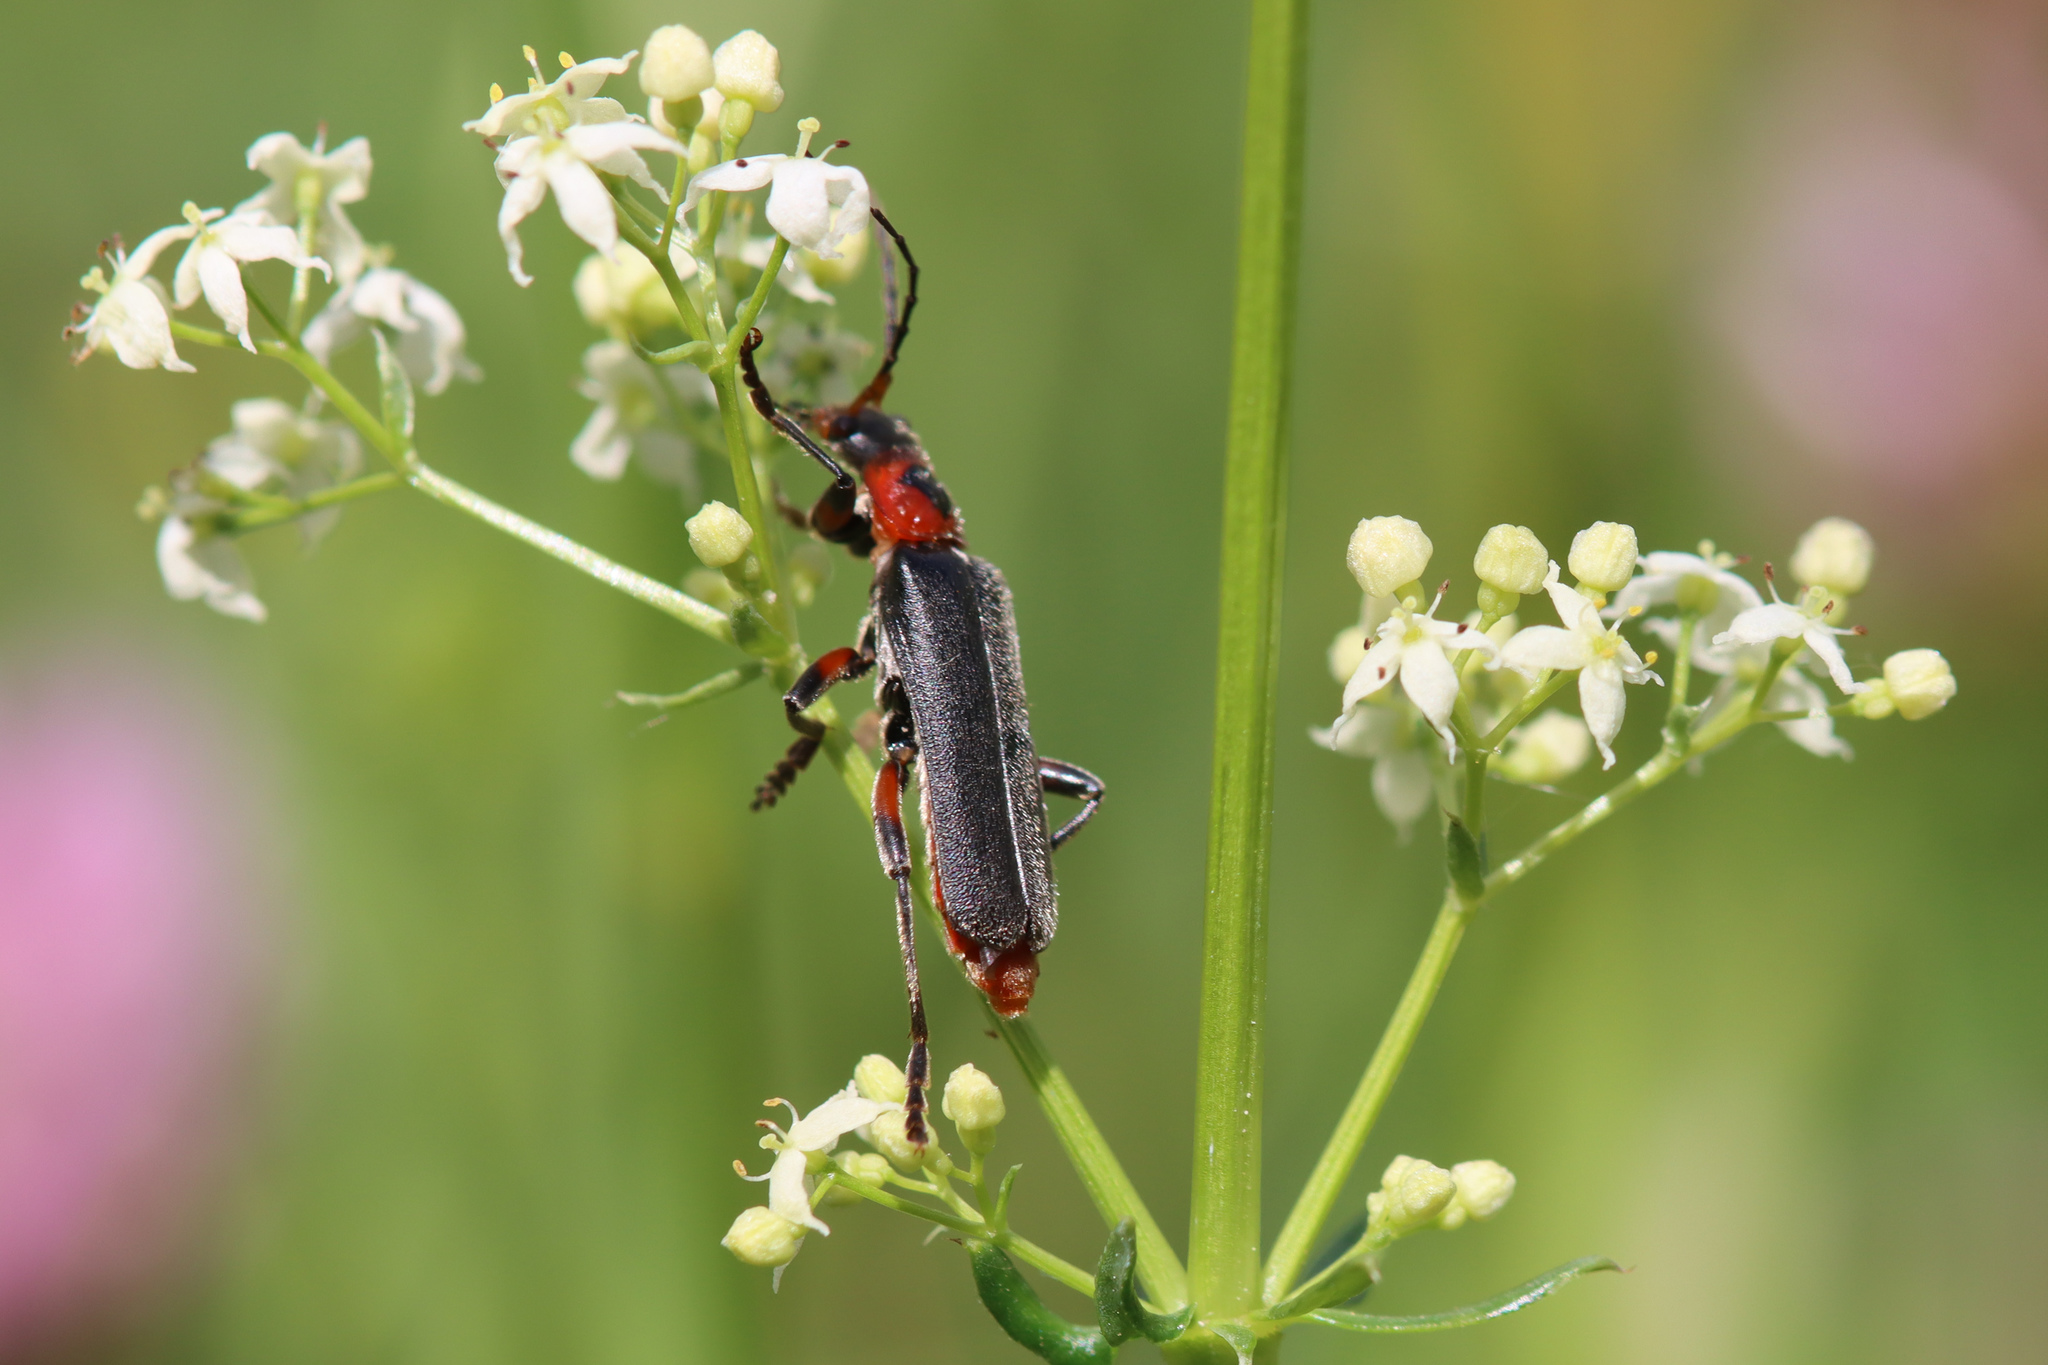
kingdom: Animalia
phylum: Arthropoda
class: Insecta
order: Coleoptera
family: Cantharidae
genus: Cantharis
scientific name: Cantharis rustica
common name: Soldier beetle
